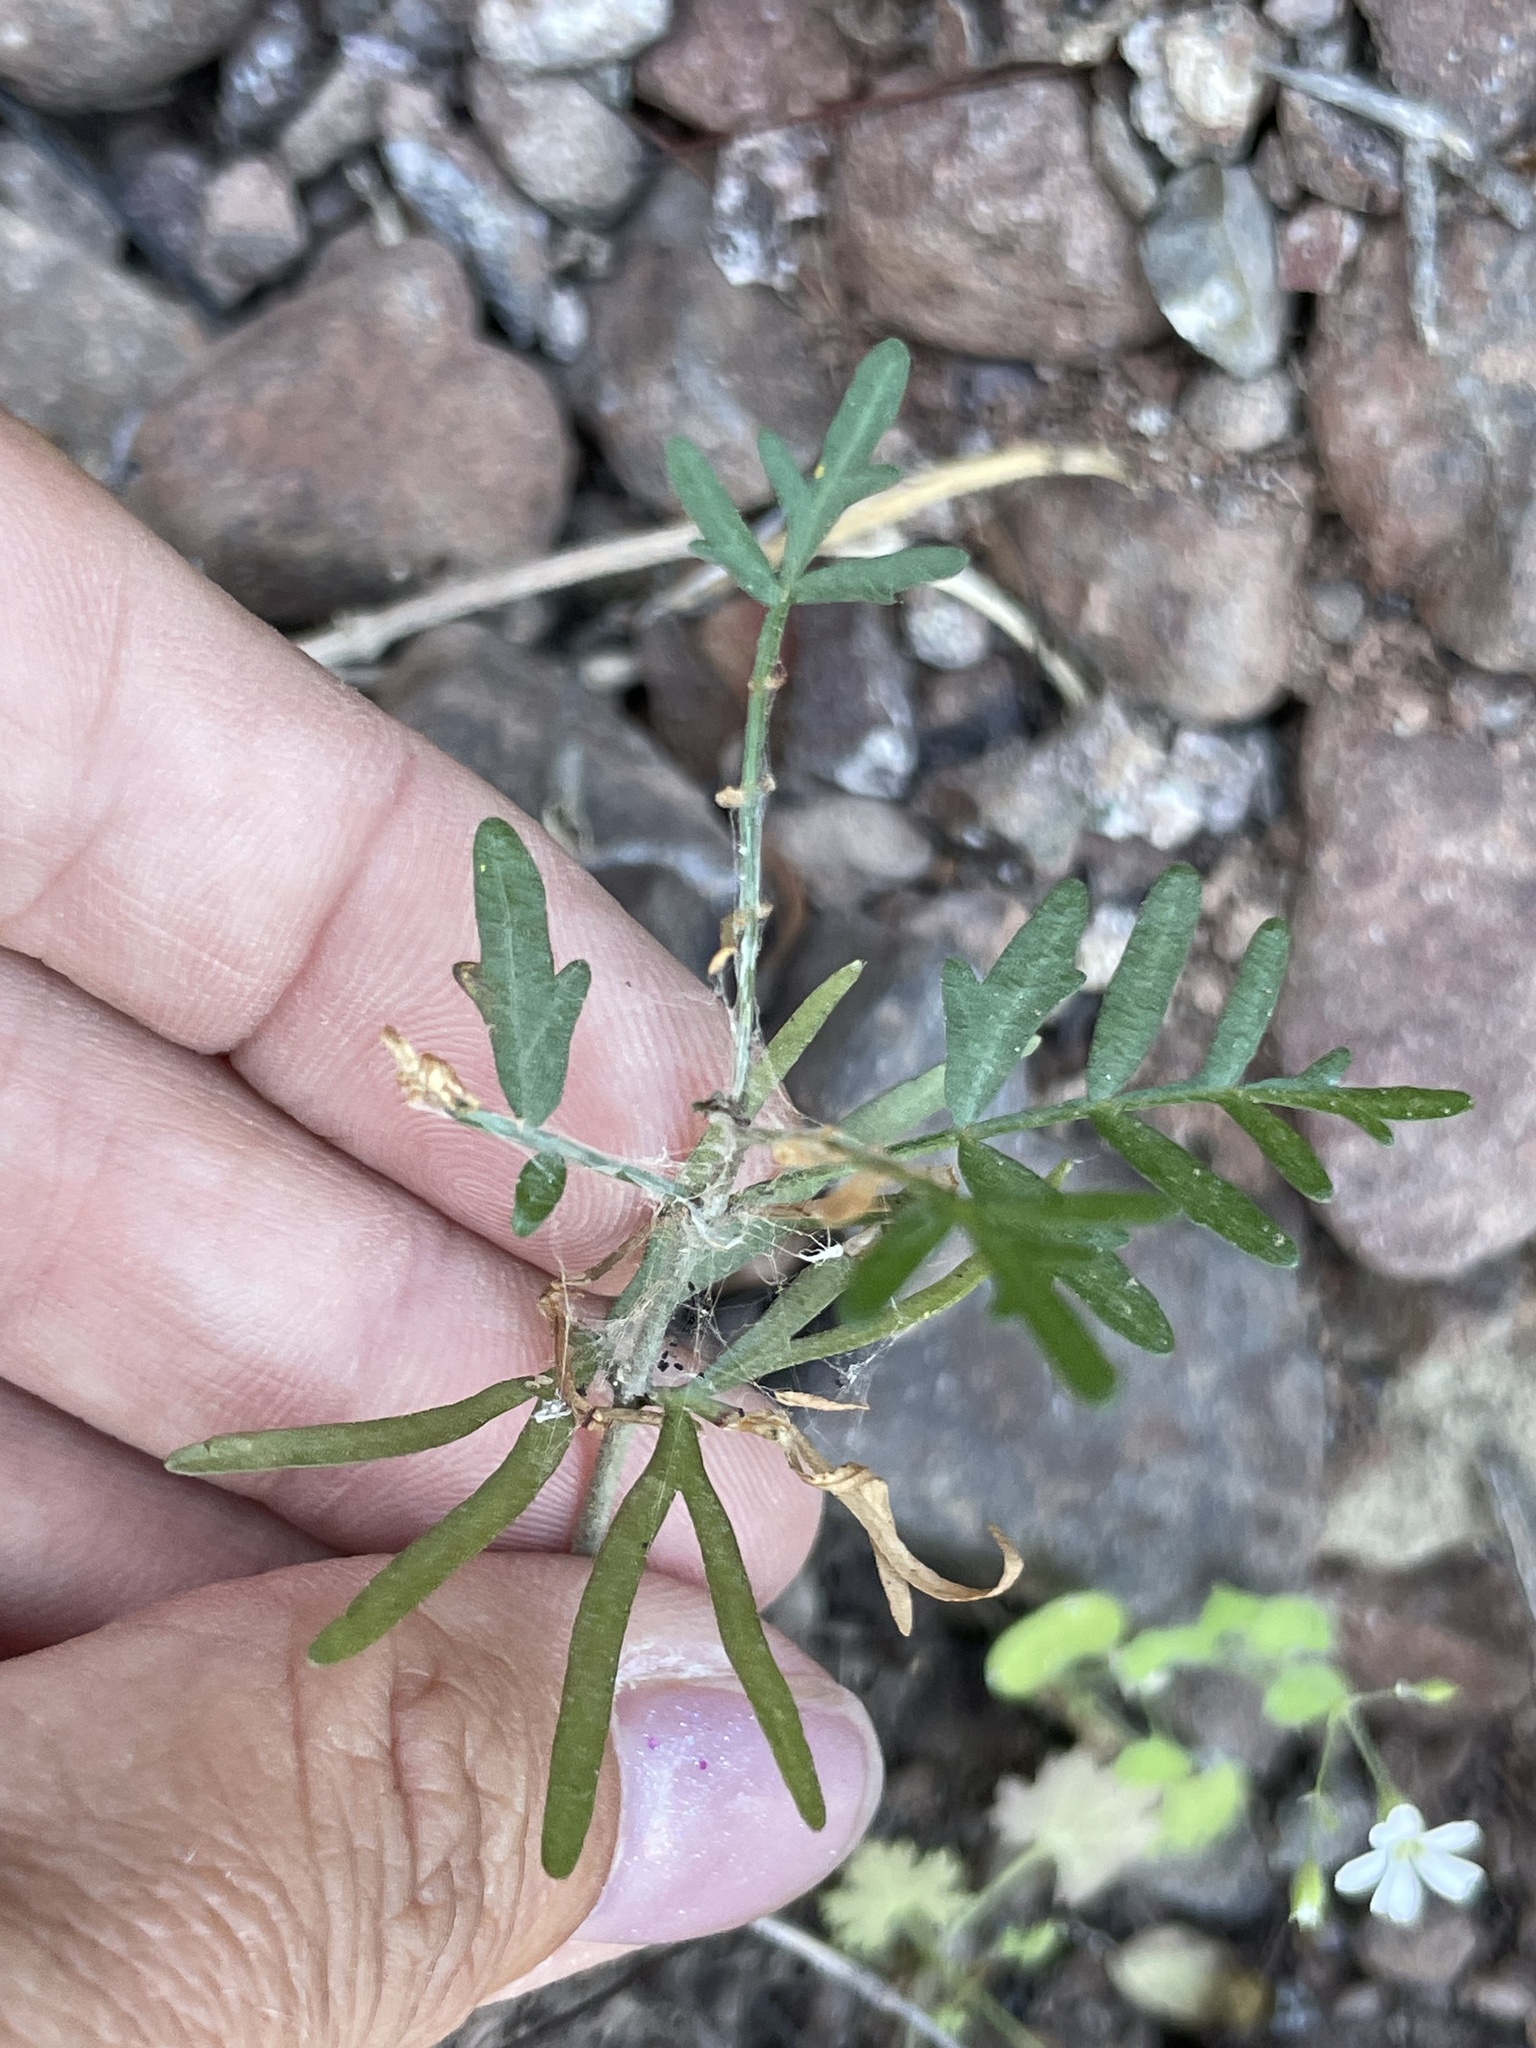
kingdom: Plantae
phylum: Tracheophyta
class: Magnoliopsida
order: Sapindales
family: Burseraceae
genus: Bursera
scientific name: Bursera microphylla
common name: Elephant tree
